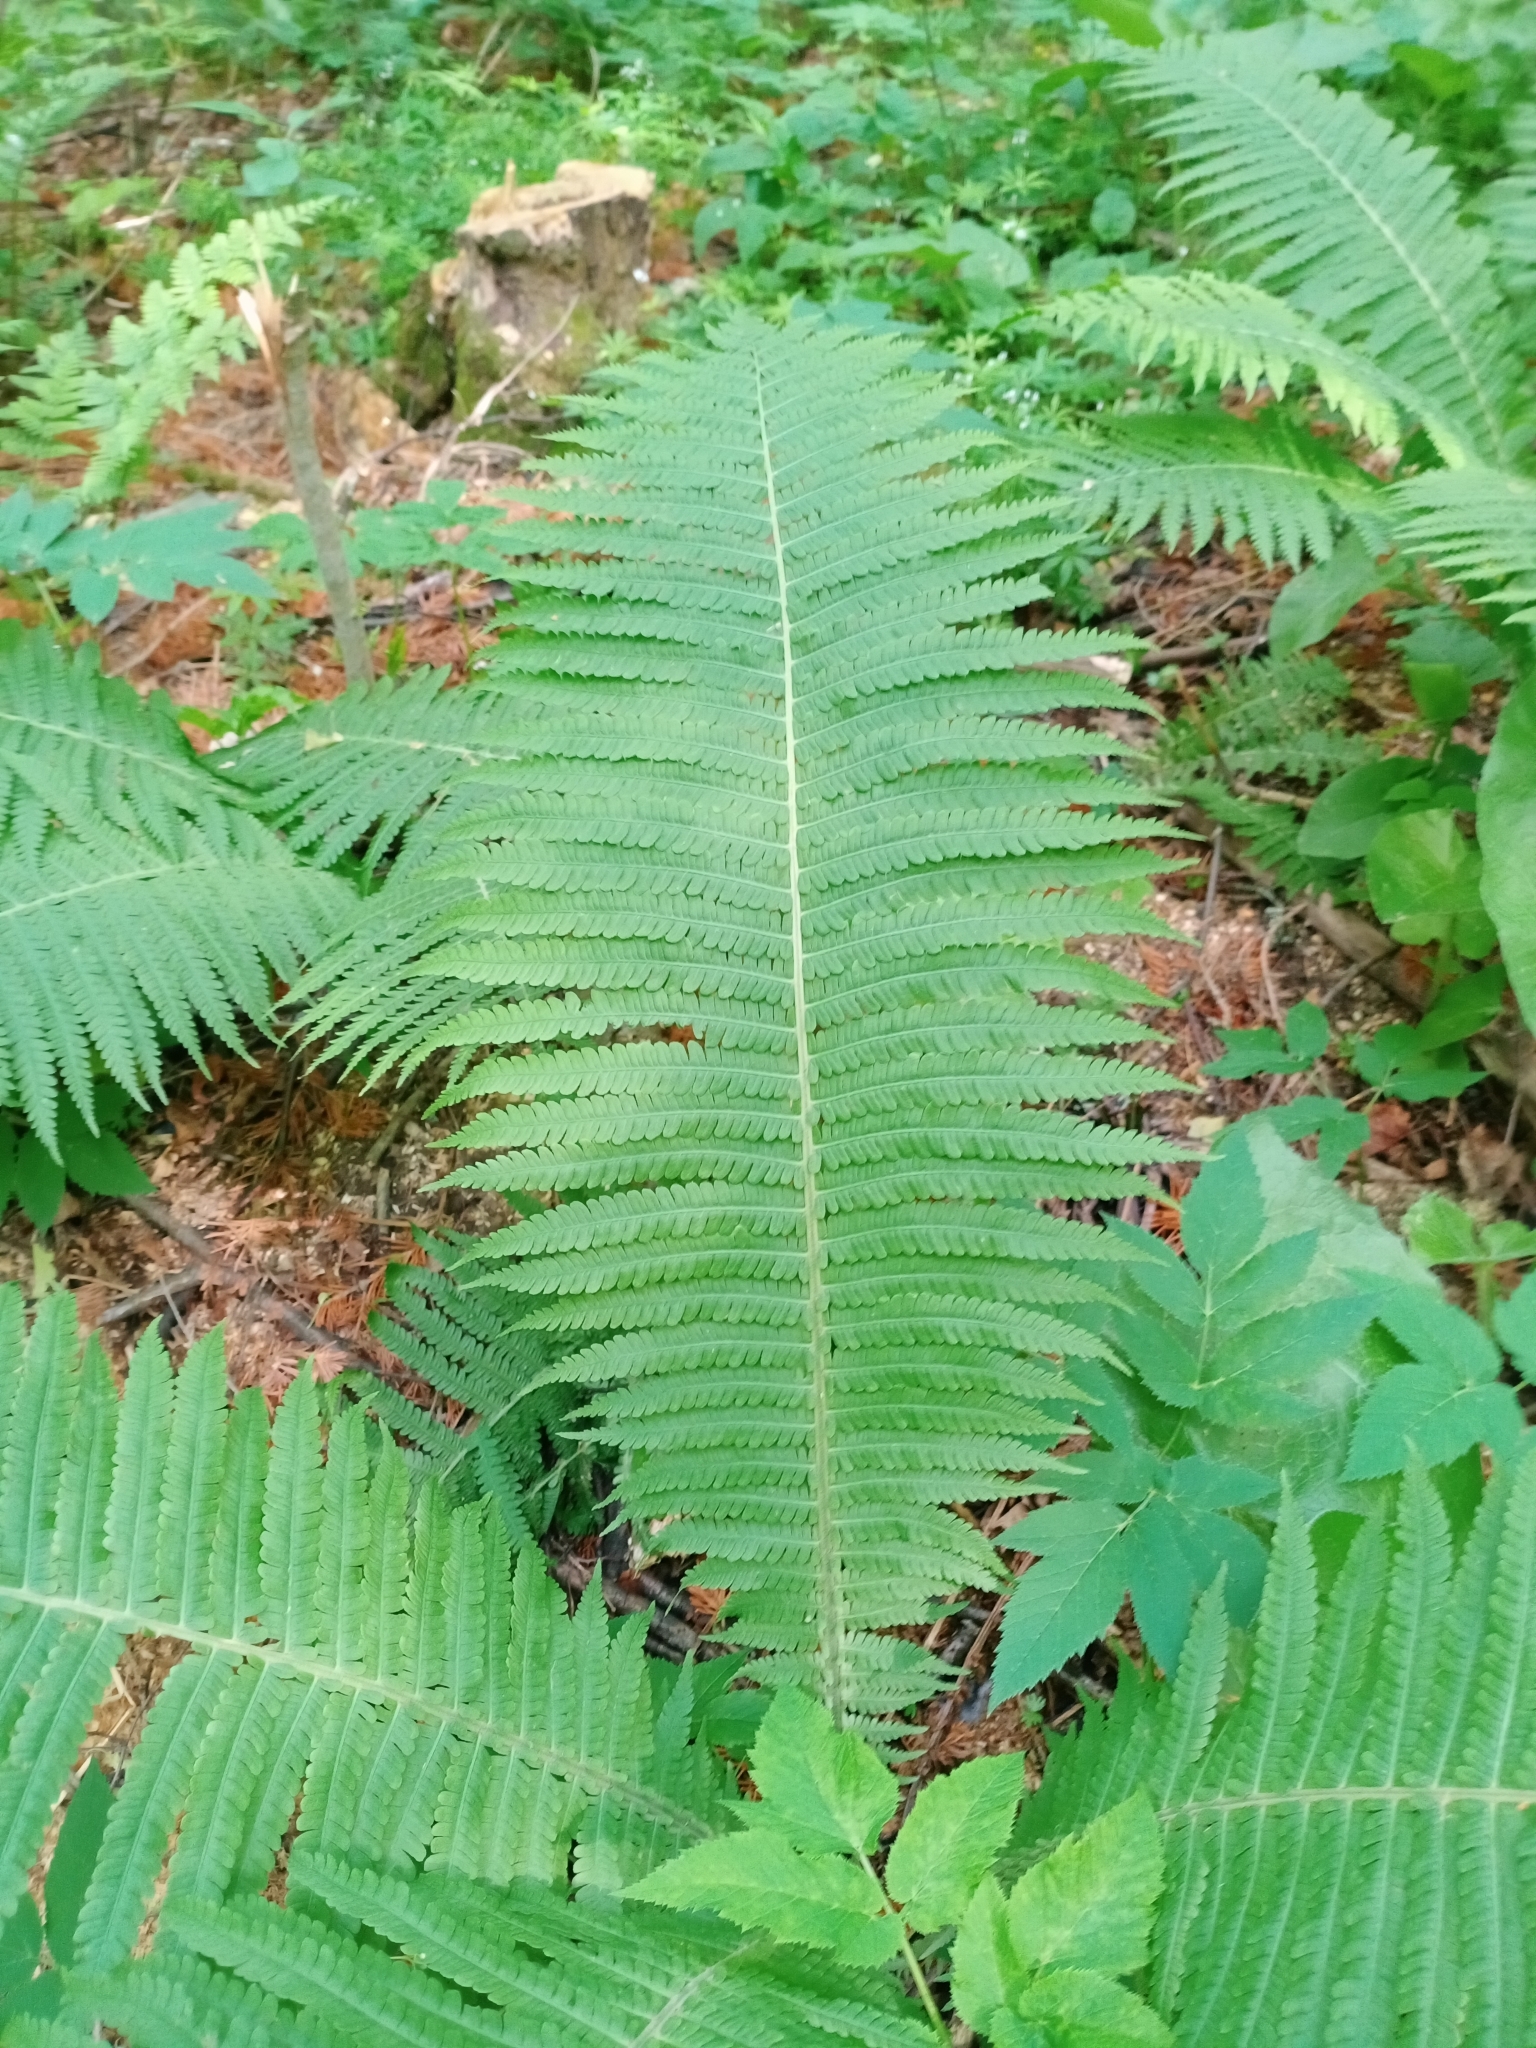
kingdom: Plantae
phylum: Tracheophyta
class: Polypodiopsida
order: Polypodiales
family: Onocleaceae
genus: Matteuccia
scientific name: Matteuccia struthiopteris
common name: Ostrich fern
